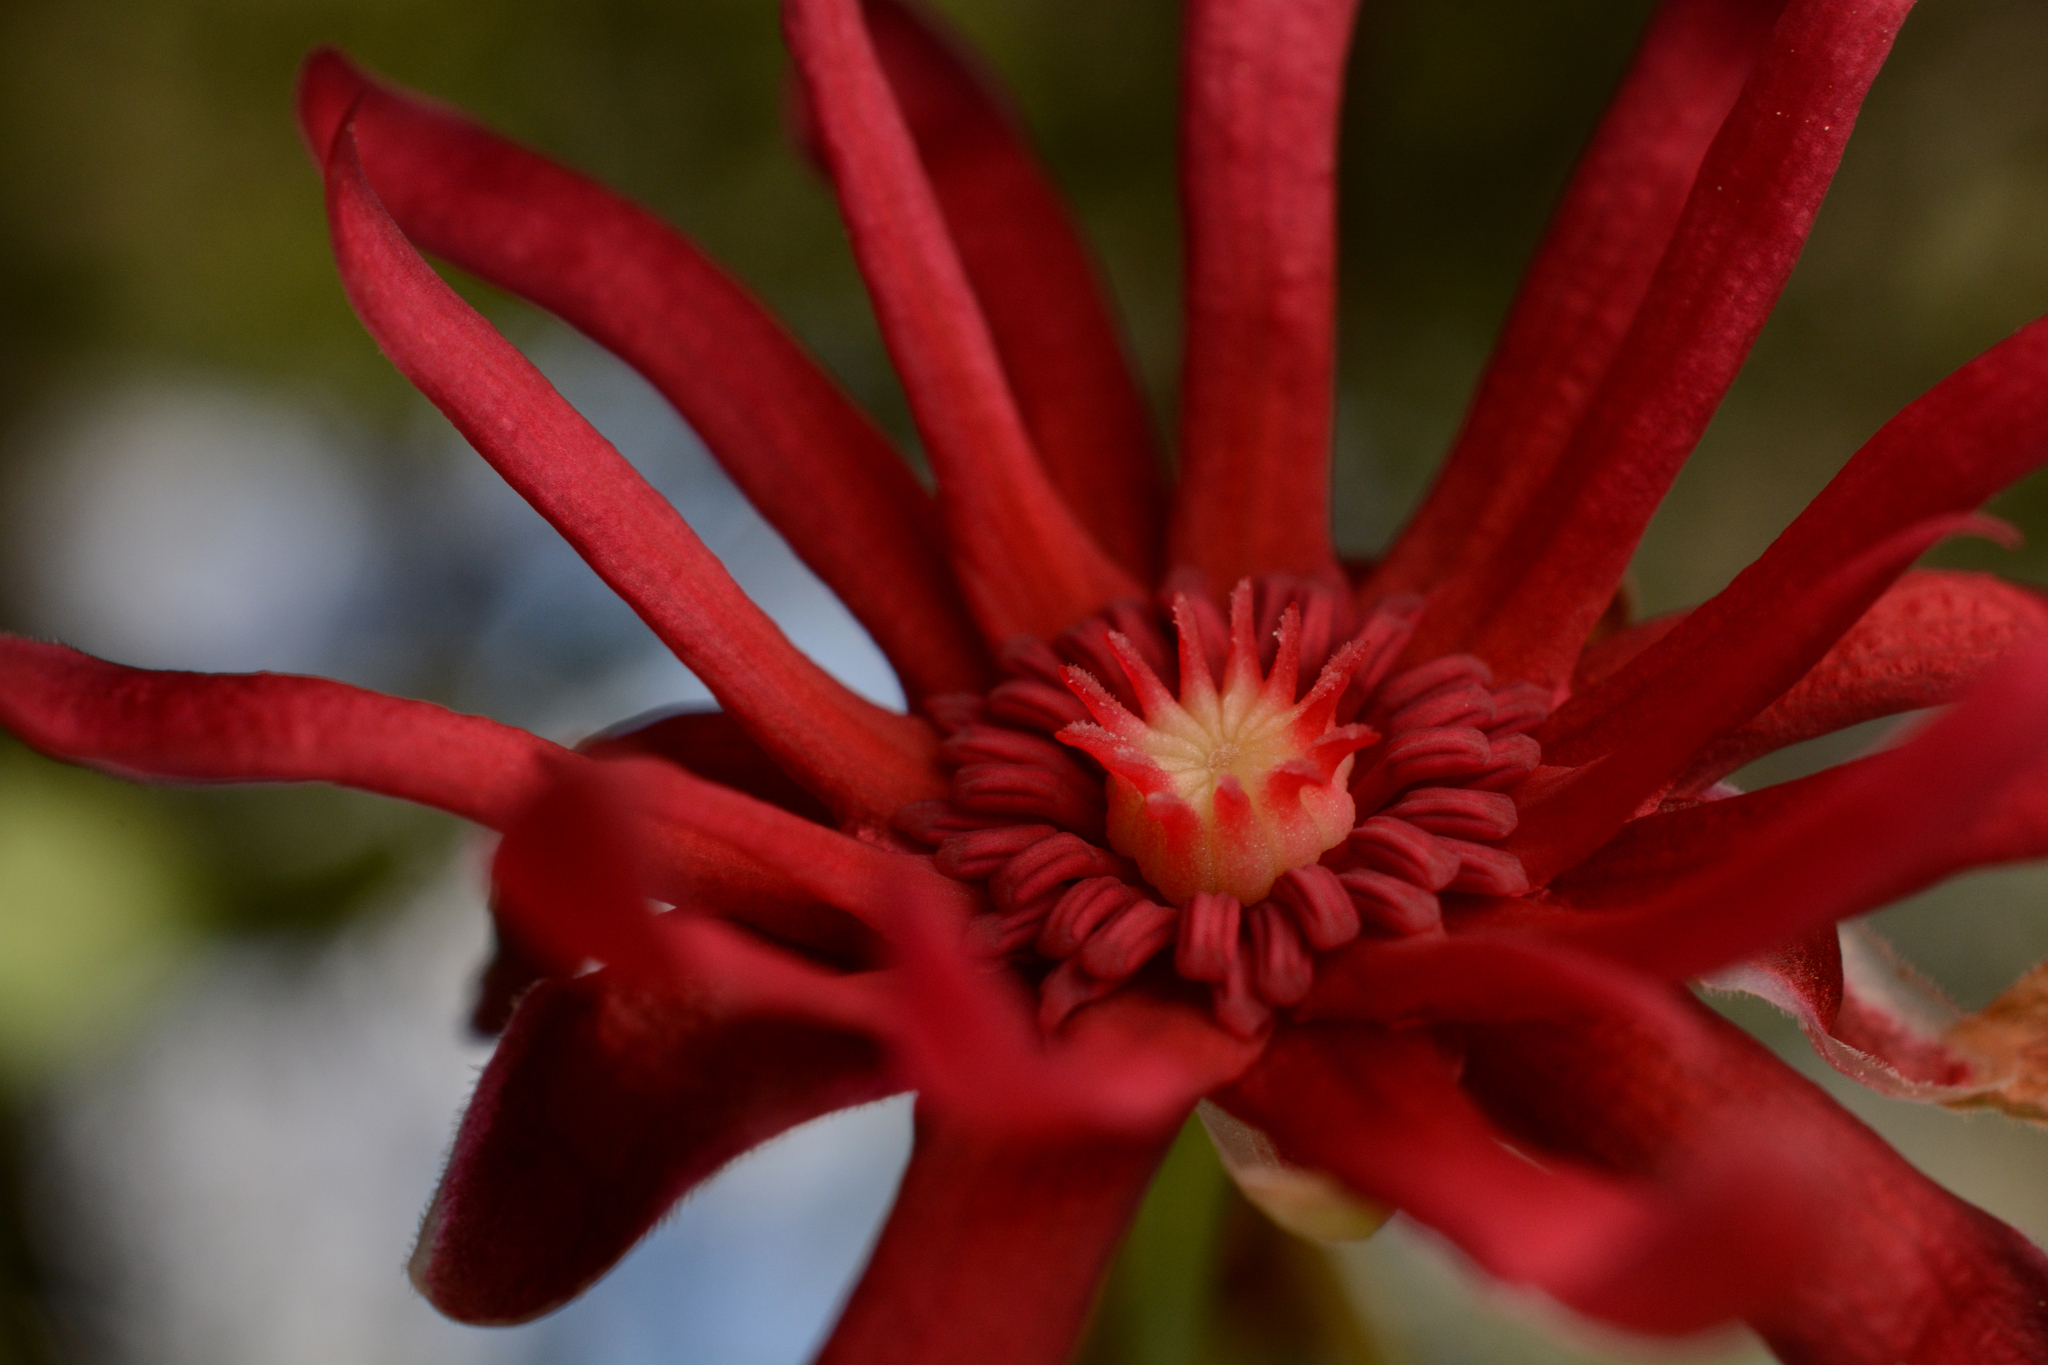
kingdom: Plantae
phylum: Tracheophyta
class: Magnoliopsida
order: Austrobaileyales
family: Schisandraceae
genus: Illicium
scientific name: Illicium floridanum
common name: Florida anisetree
